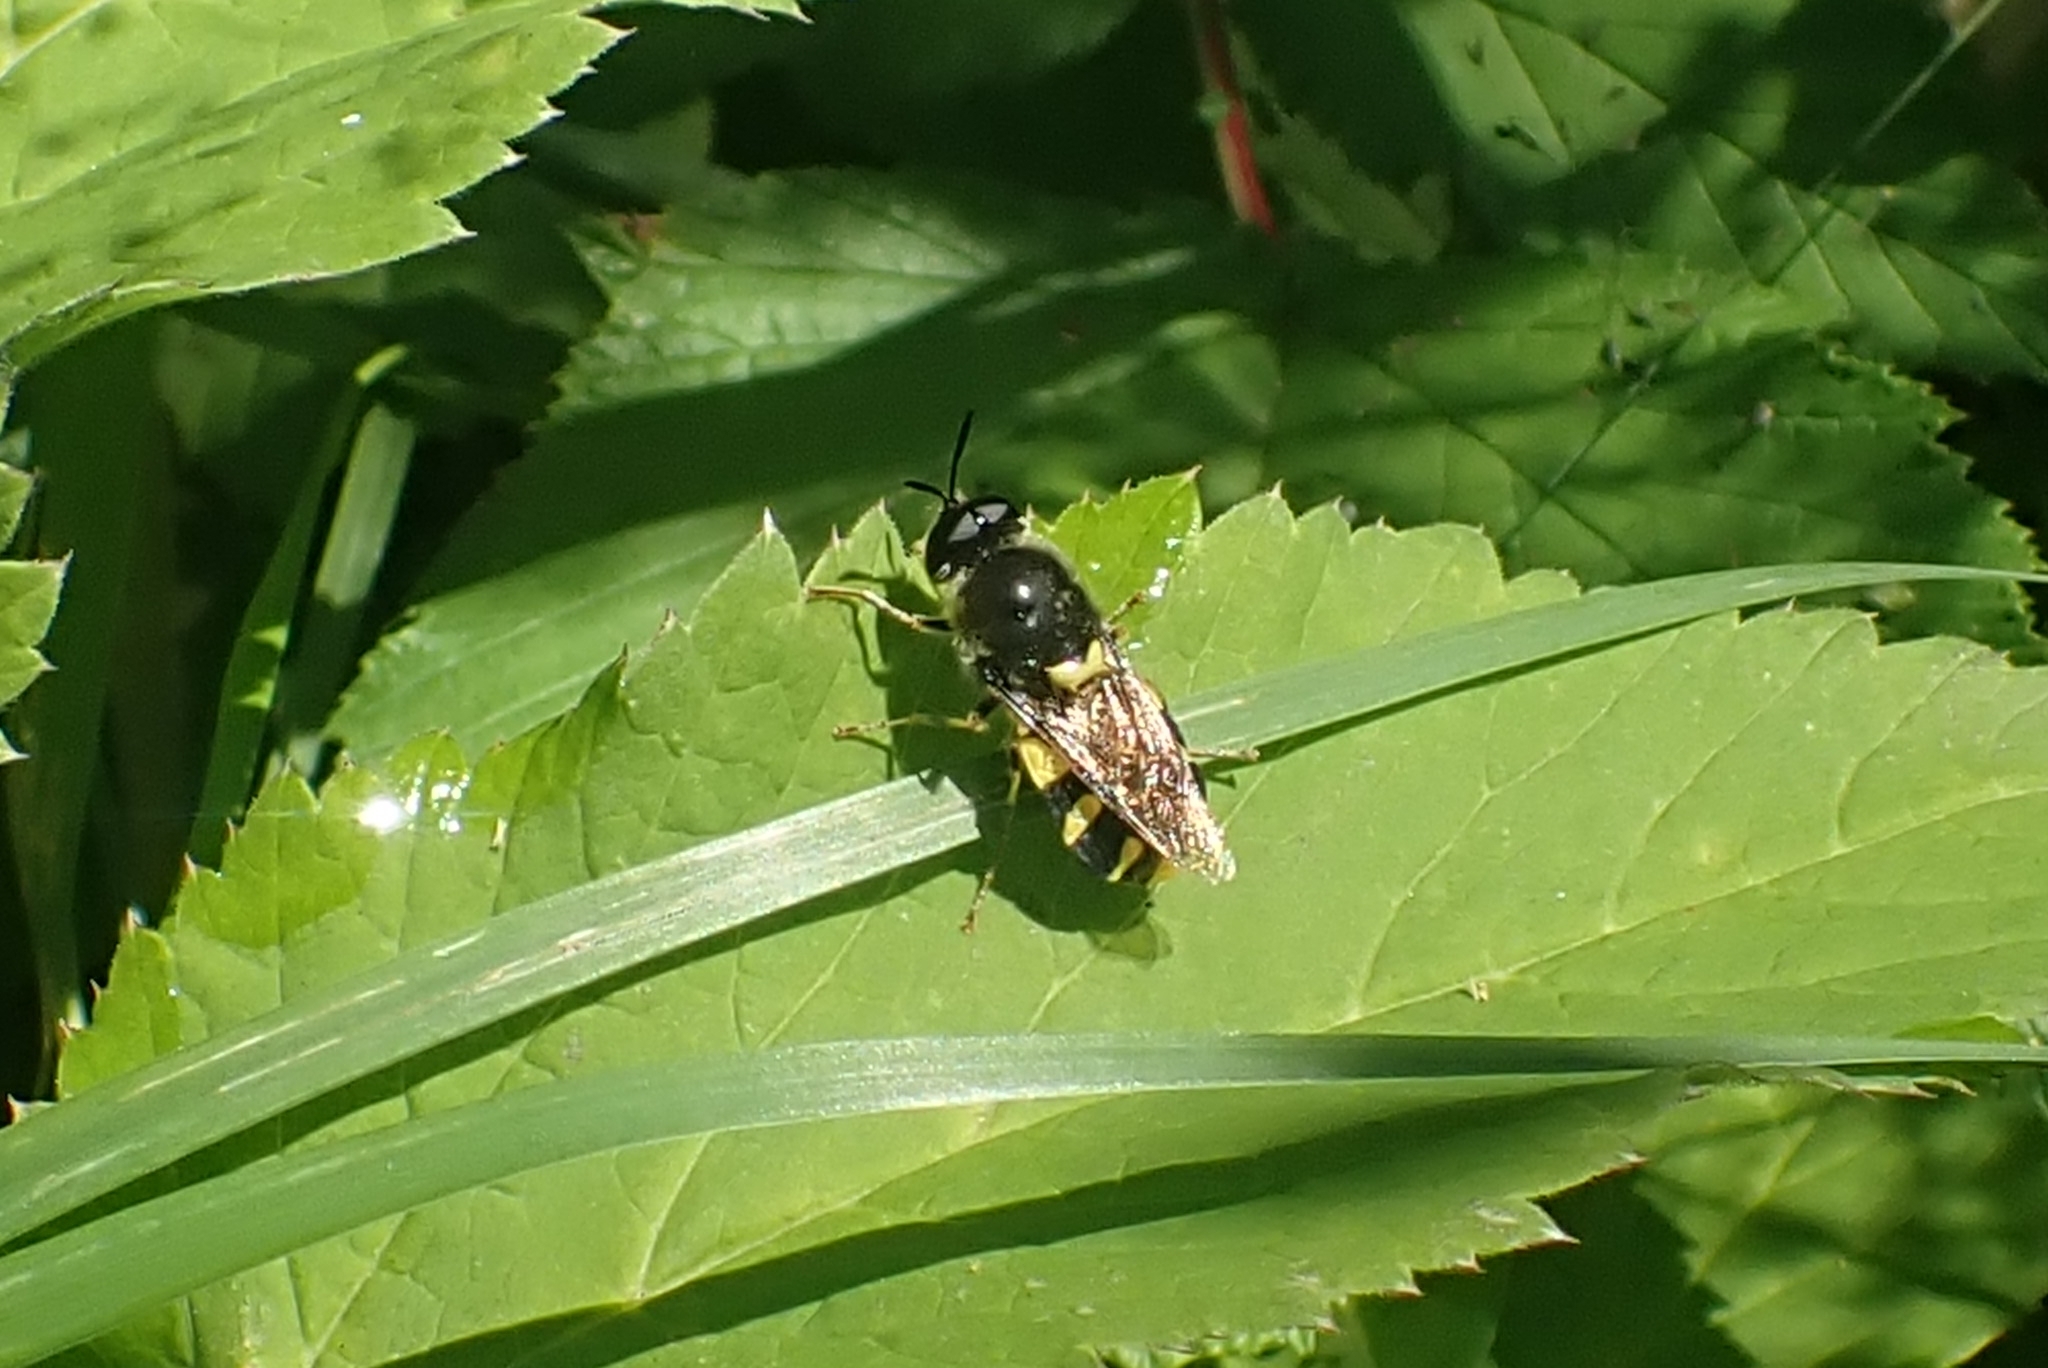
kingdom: Animalia
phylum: Arthropoda
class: Insecta
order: Diptera
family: Stratiomyidae
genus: Stratiomys
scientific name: Stratiomys chamaeleon
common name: Clubbed general
